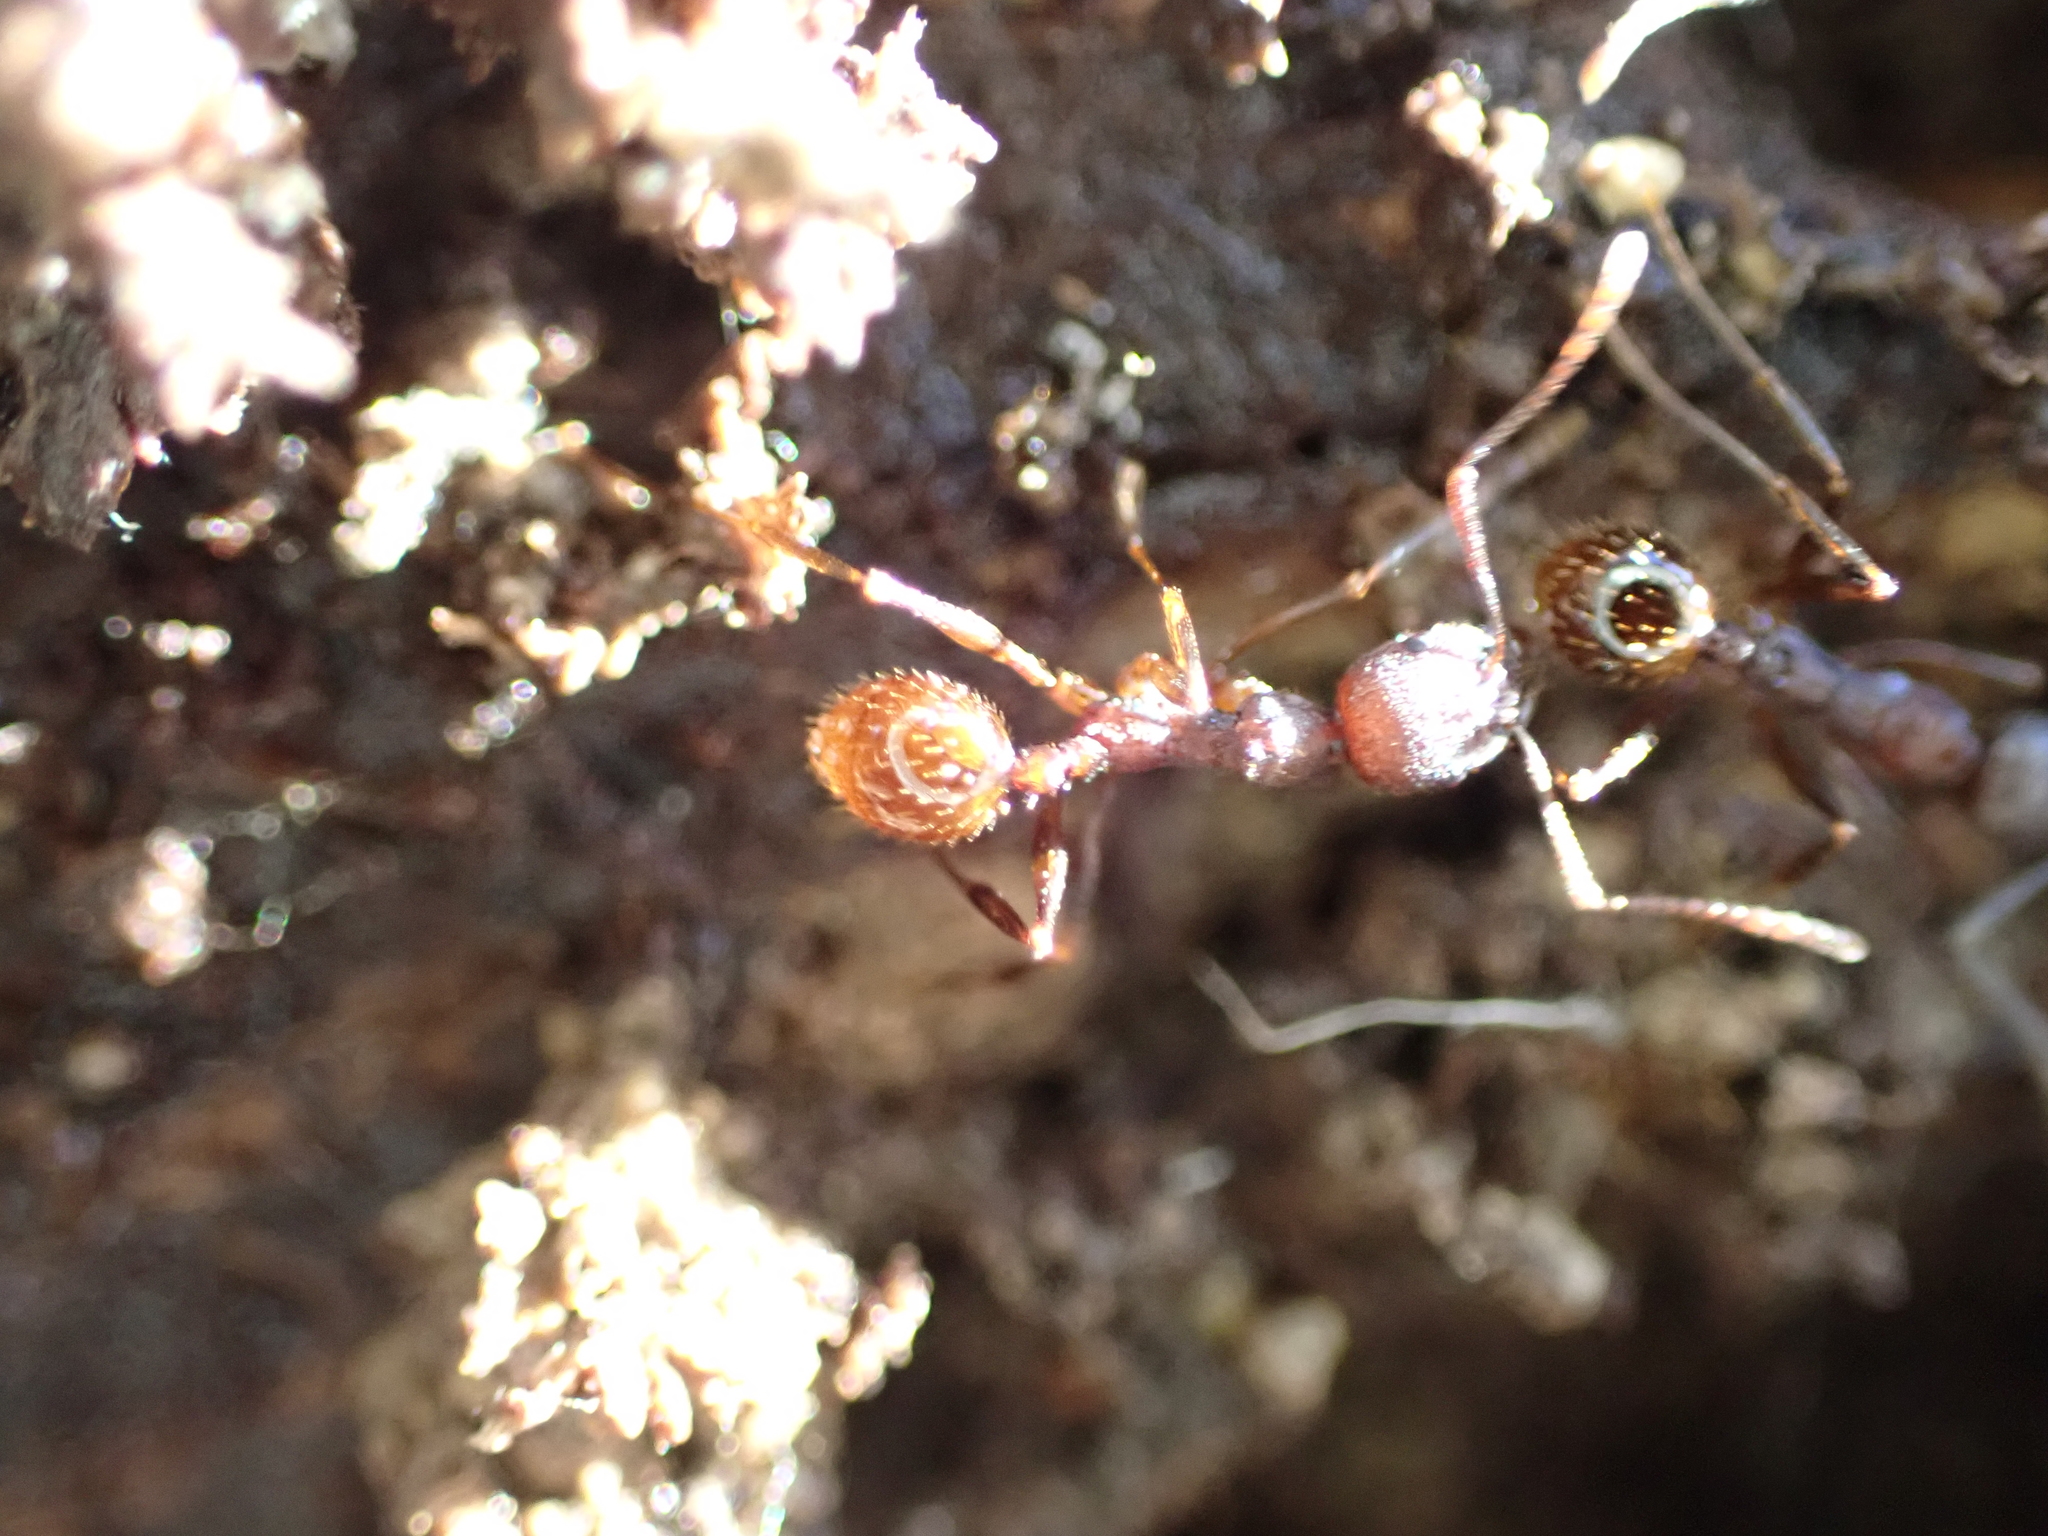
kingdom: Animalia
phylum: Arthropoda
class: Insecta
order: Hymenoptera
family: Formicidae
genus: Aphaenogaster
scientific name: Aphaenogaster fulva
